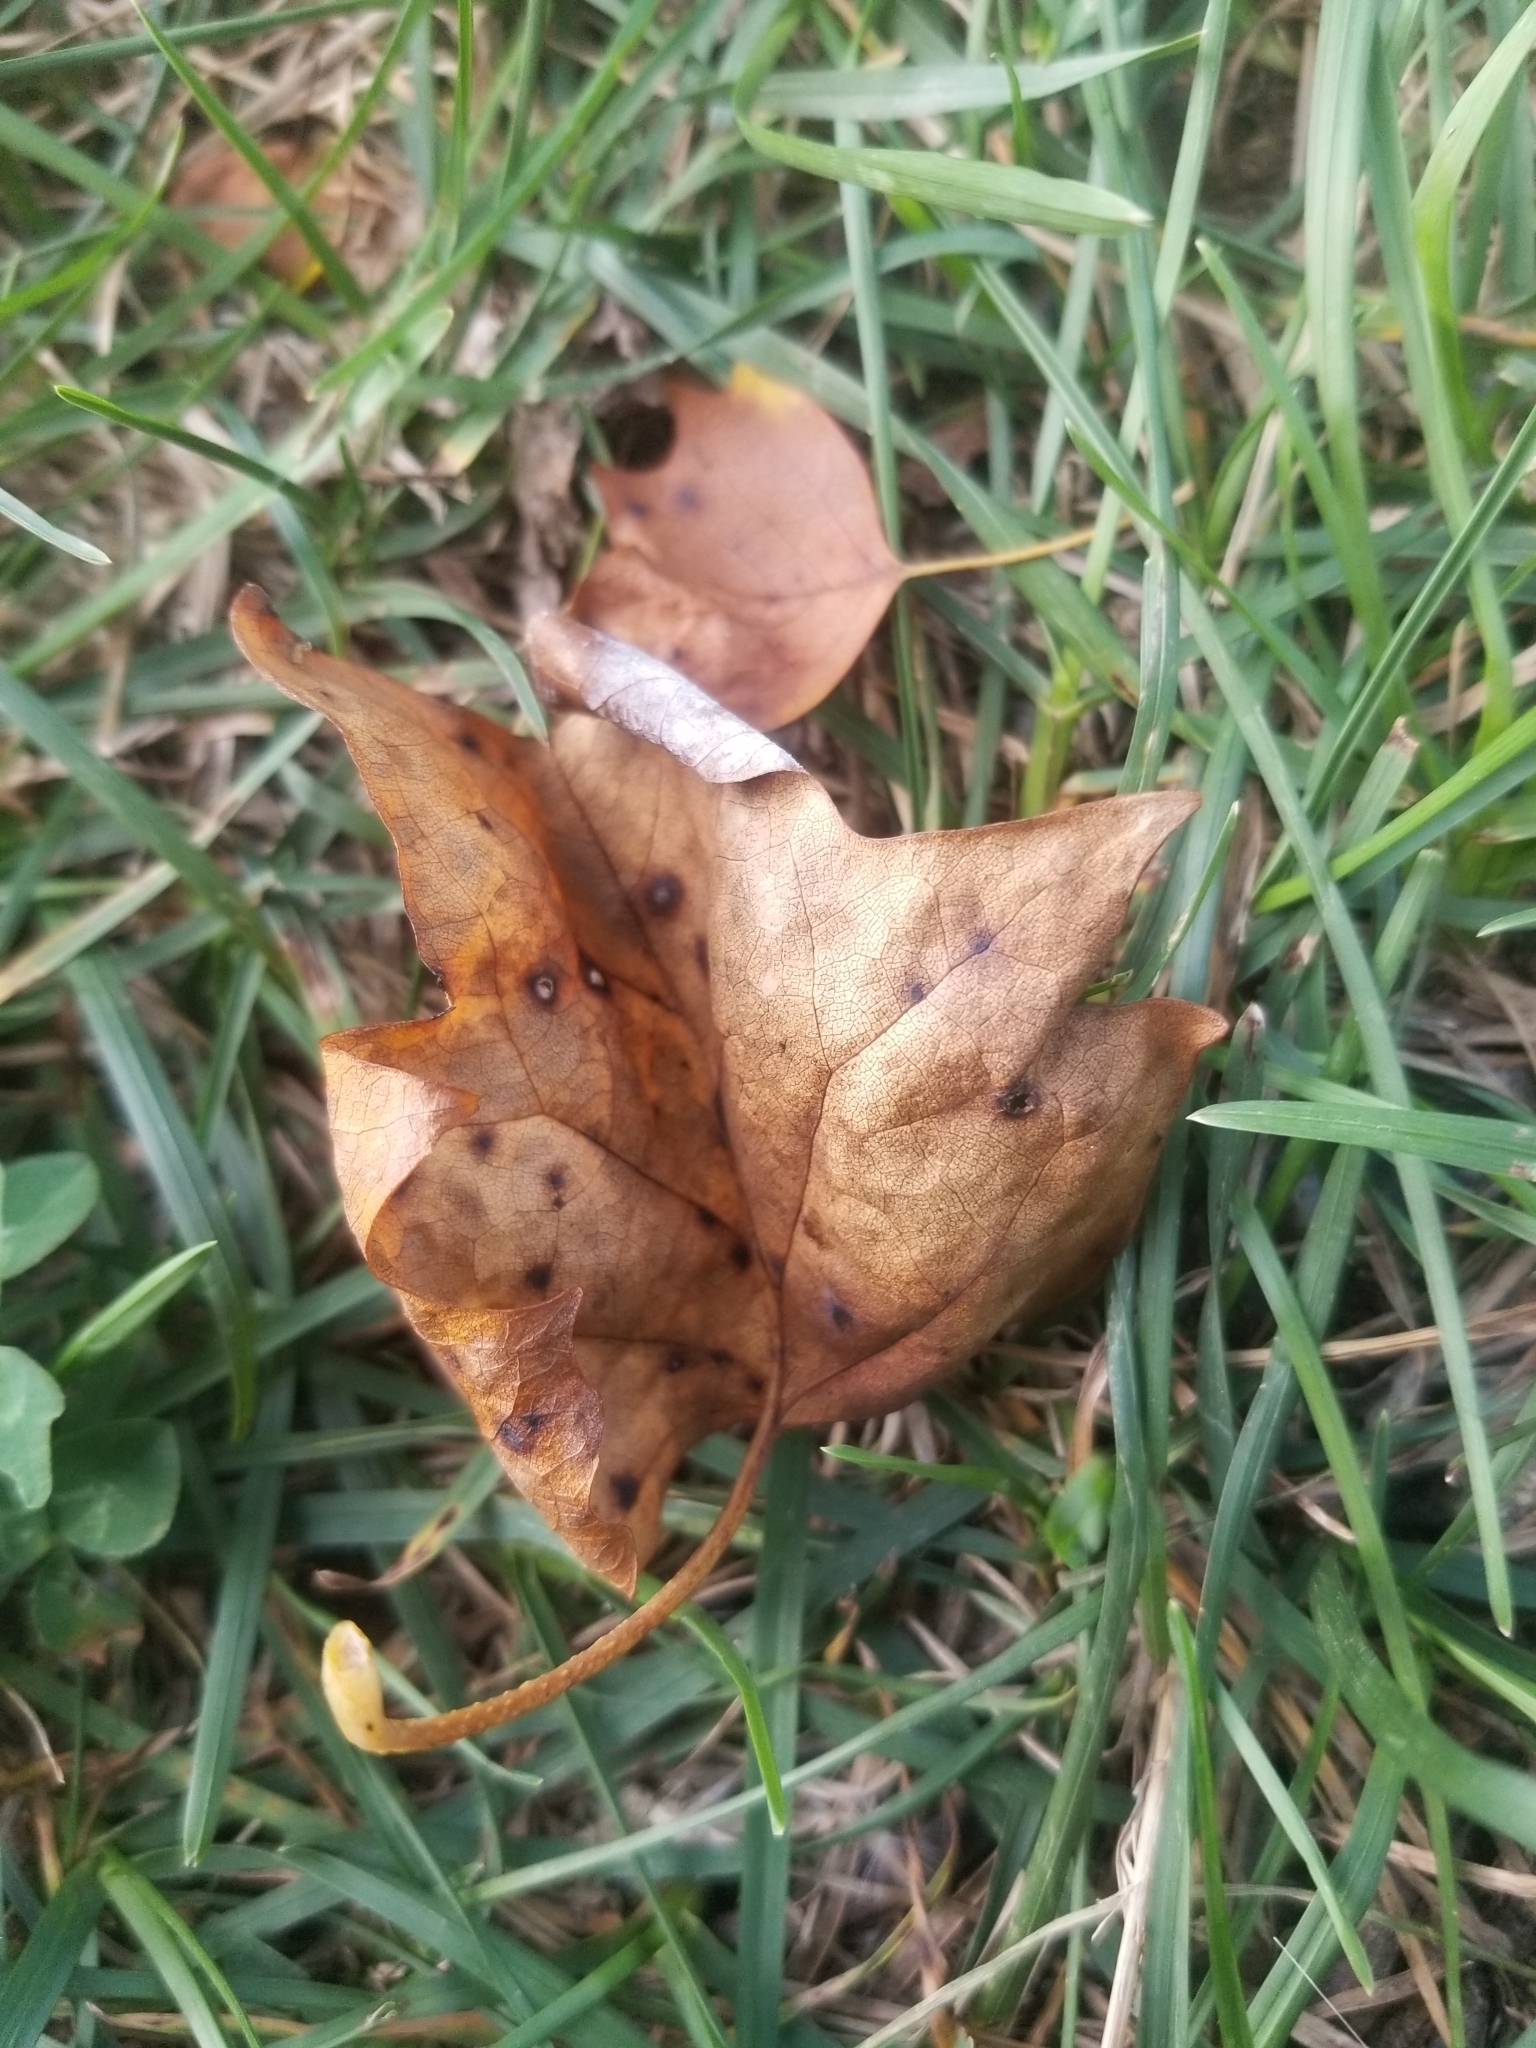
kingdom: Plantae
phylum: Tracheophyta
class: Magnoliopsida
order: Magnoliales
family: Magnoliaceae
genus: Liriodendron
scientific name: Liriodendron tulipifera
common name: Tulip tree
